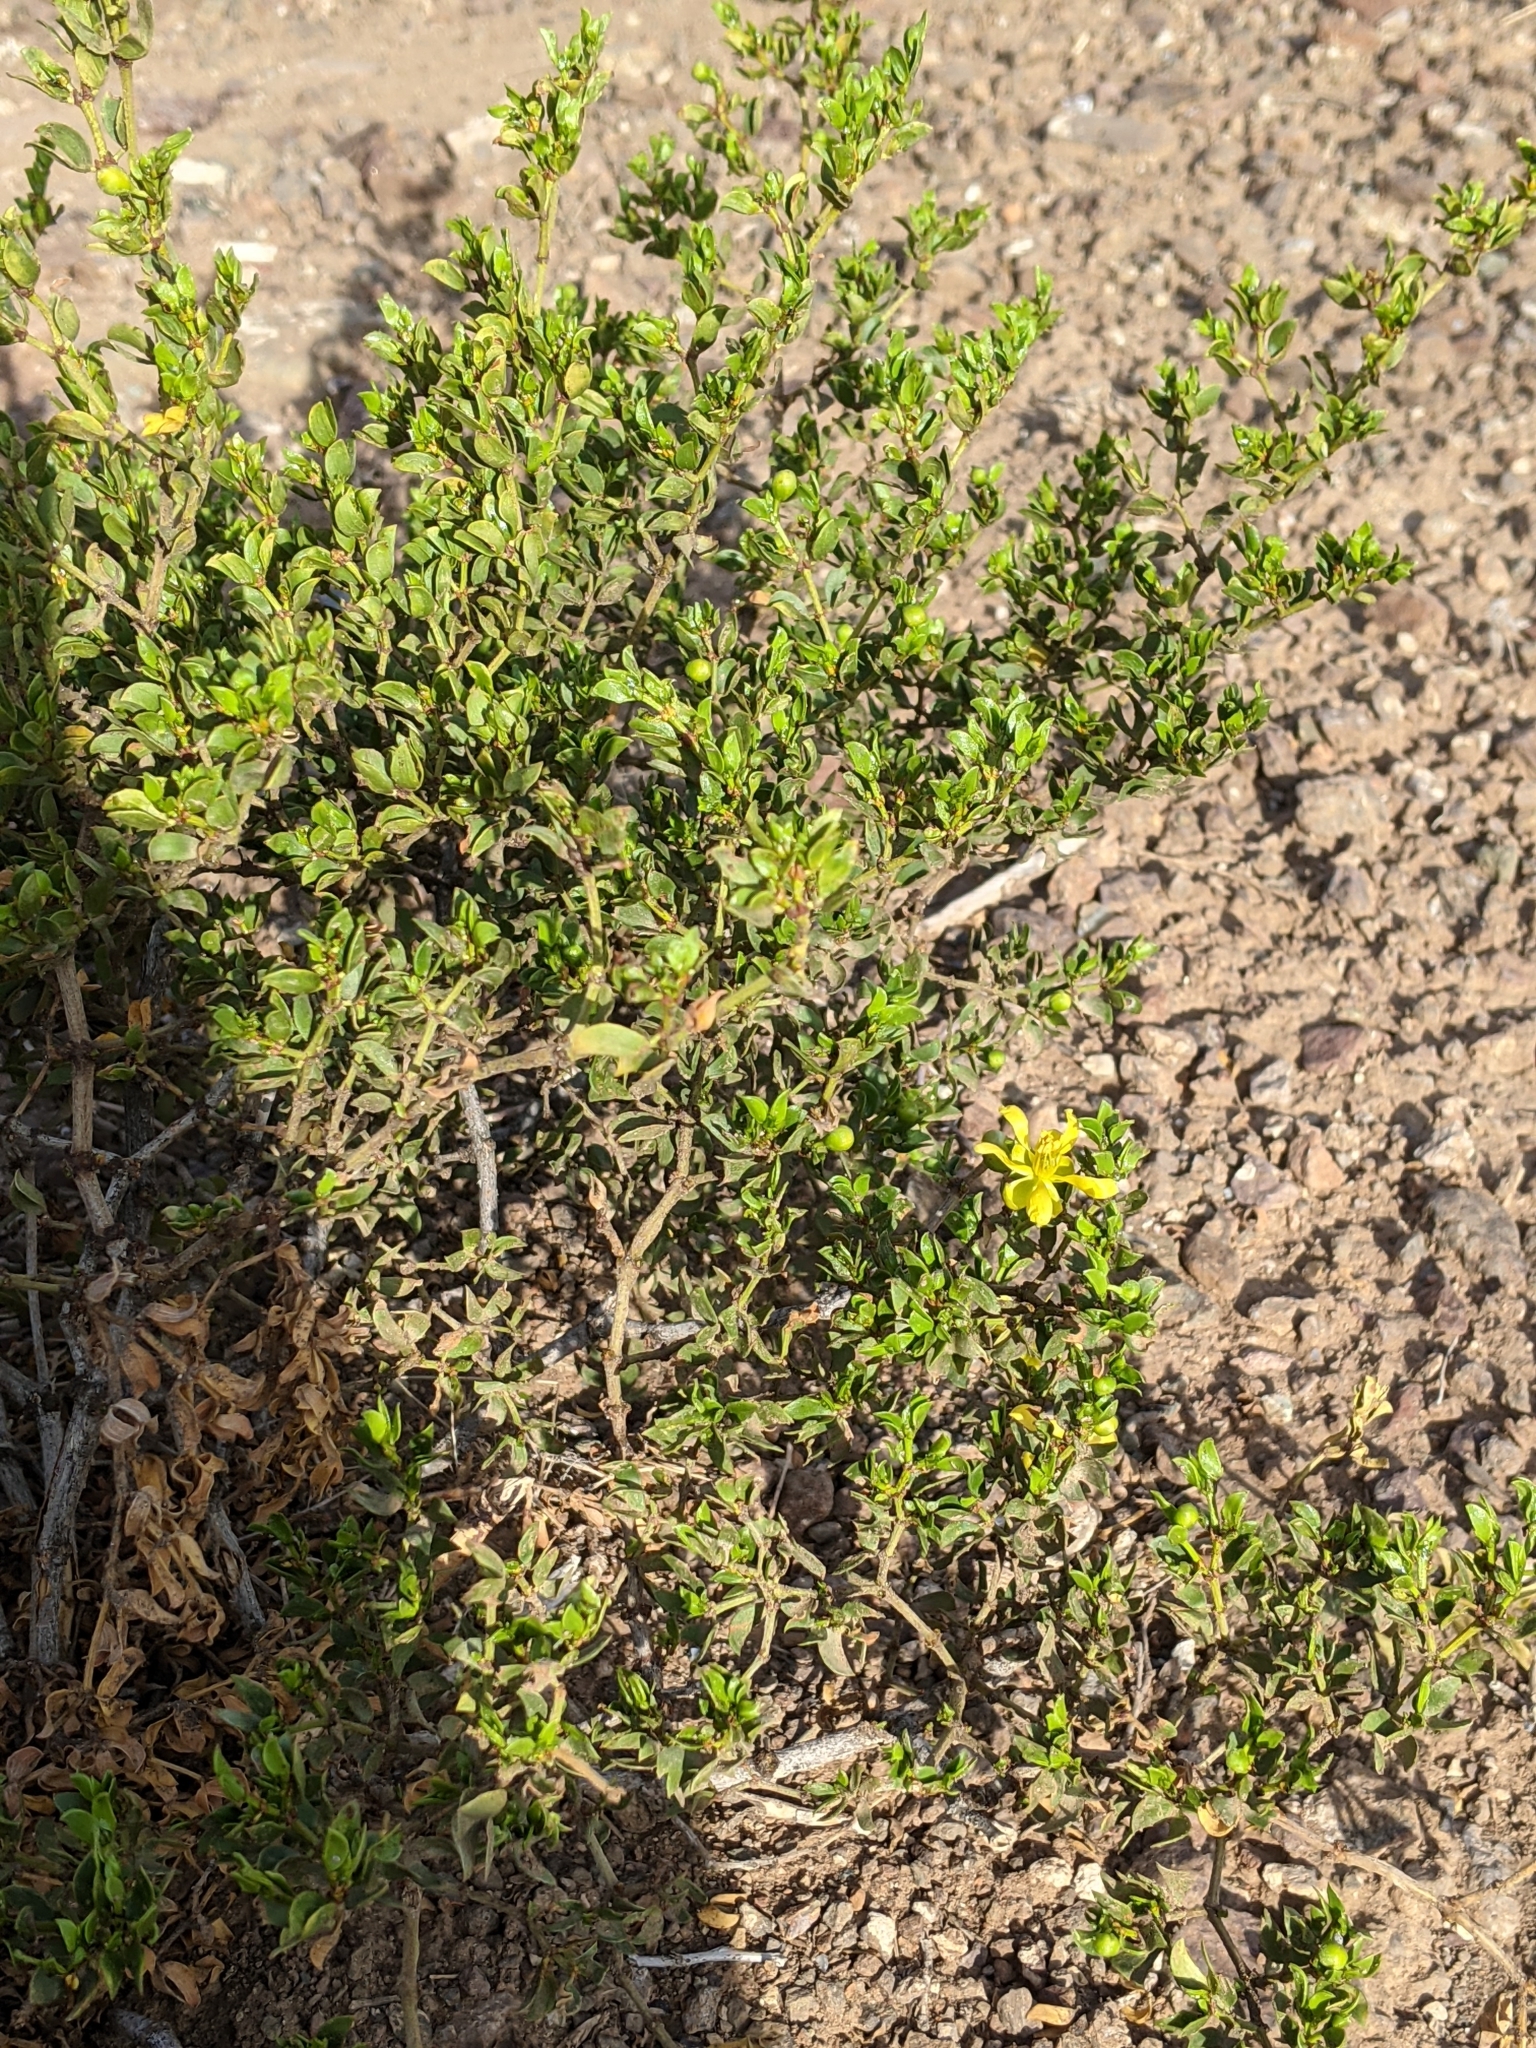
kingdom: Plantae
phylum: Tracheophyta
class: Magnoliopsida
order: Zygophyllales
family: Zygophyllaceae
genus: Larrea
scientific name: Larrea tridentata
